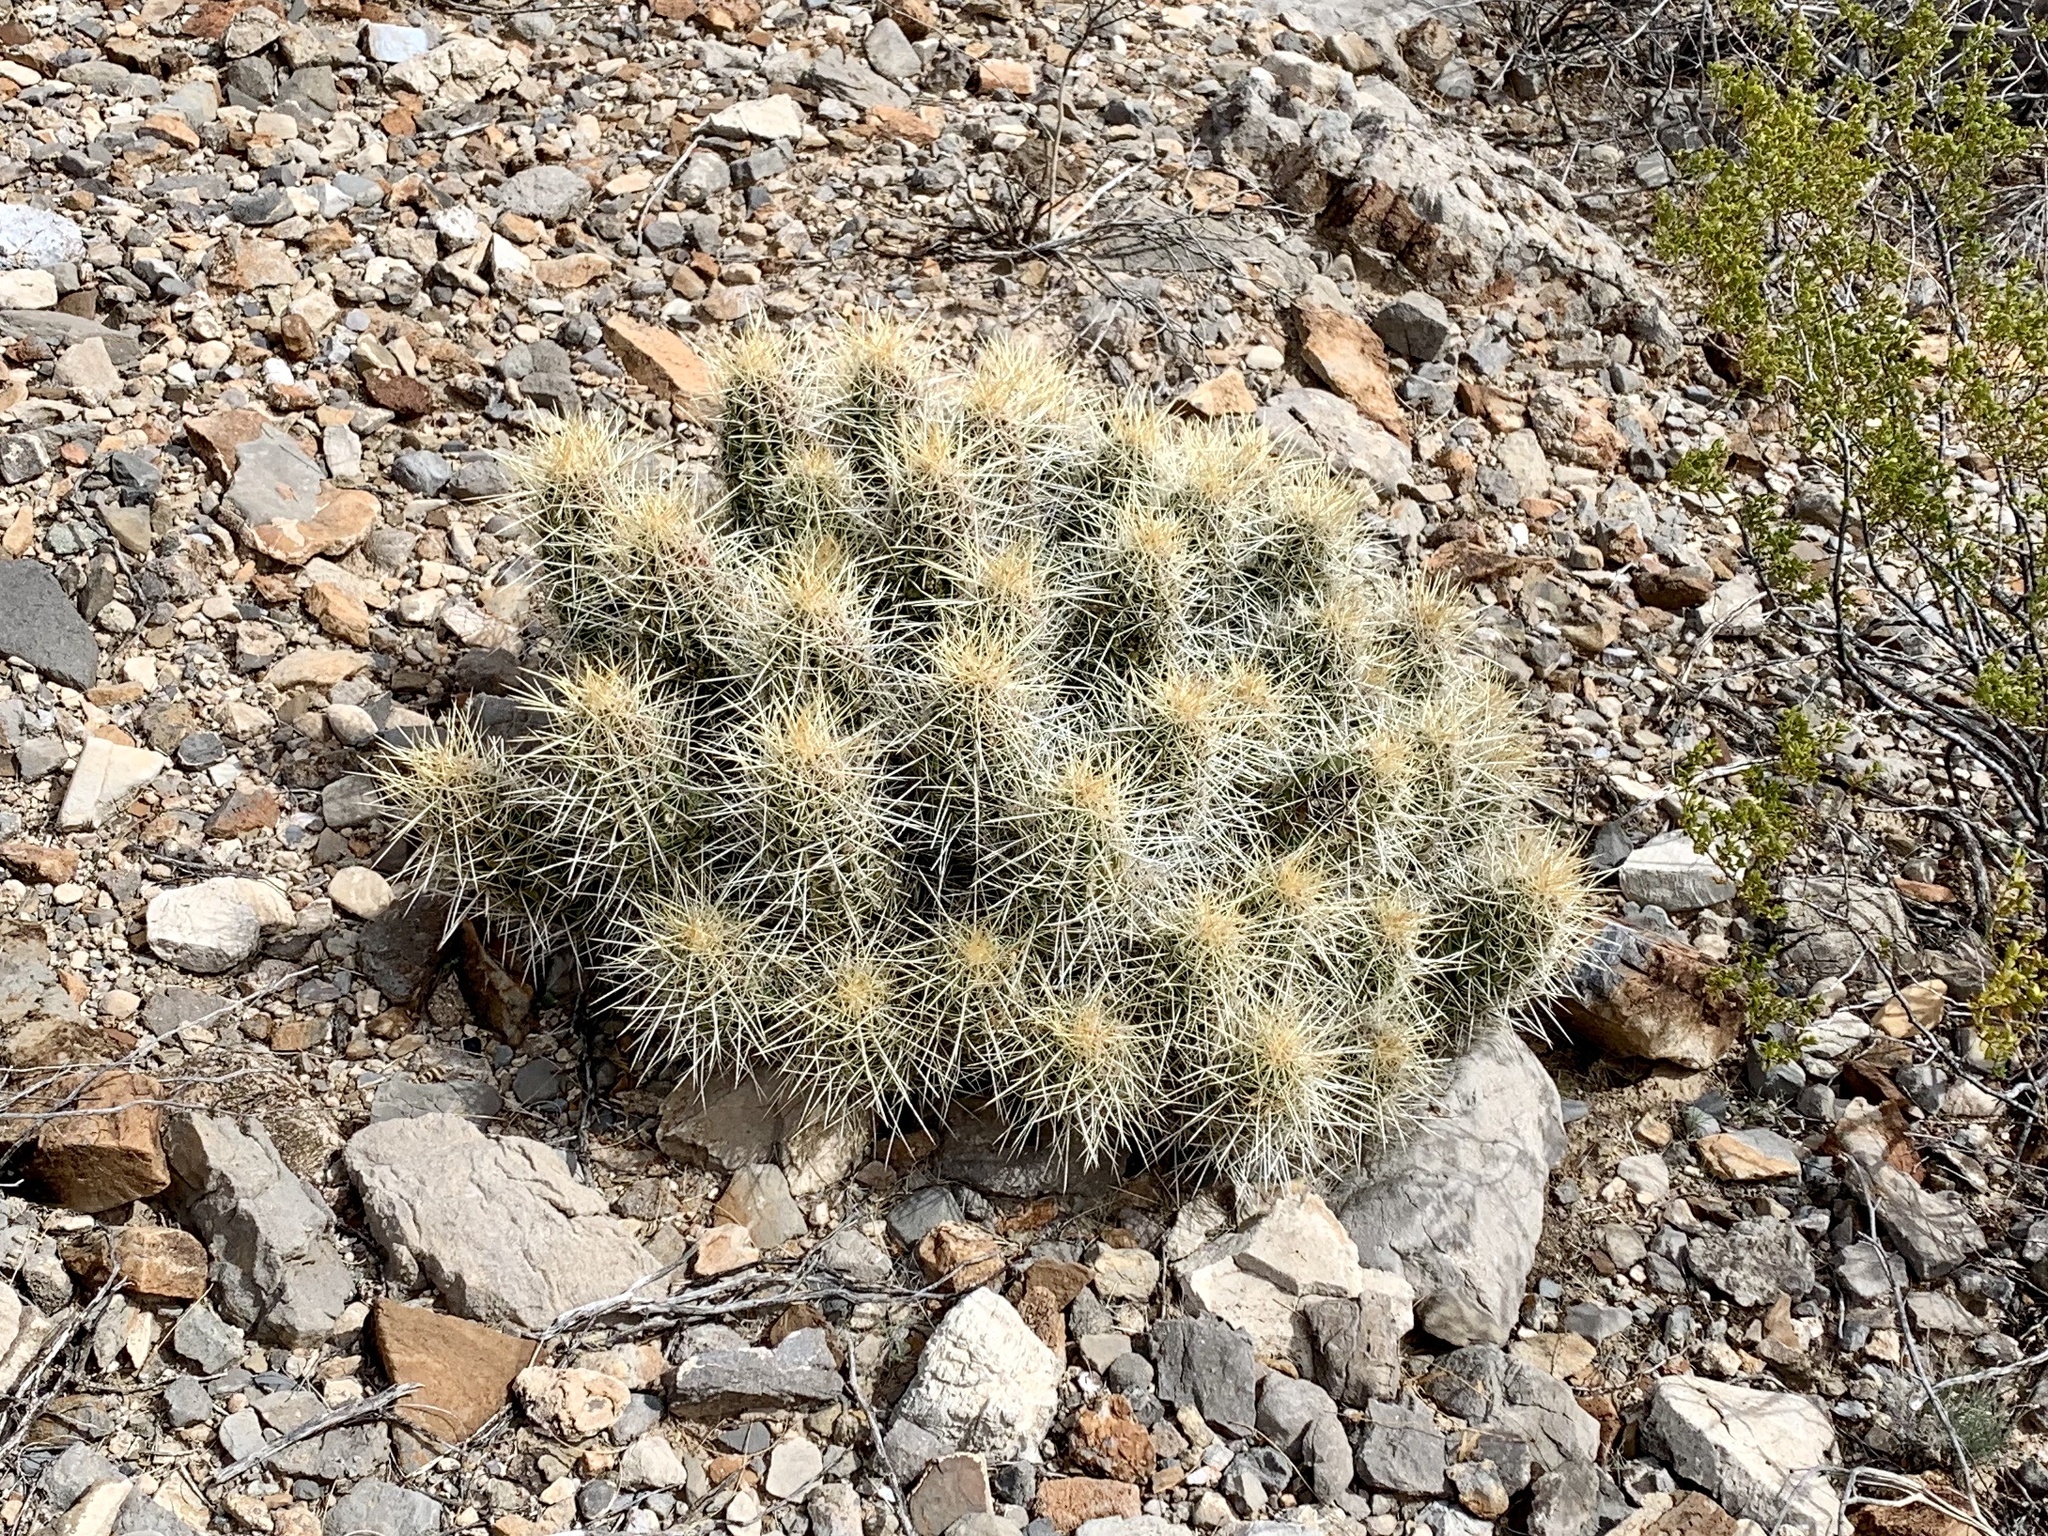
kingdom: Plantae
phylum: Tracheophyta
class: Magnoliopsida
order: Caryophyllales
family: Cactaceae
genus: Echinocereus
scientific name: Echinocereus stramineus
